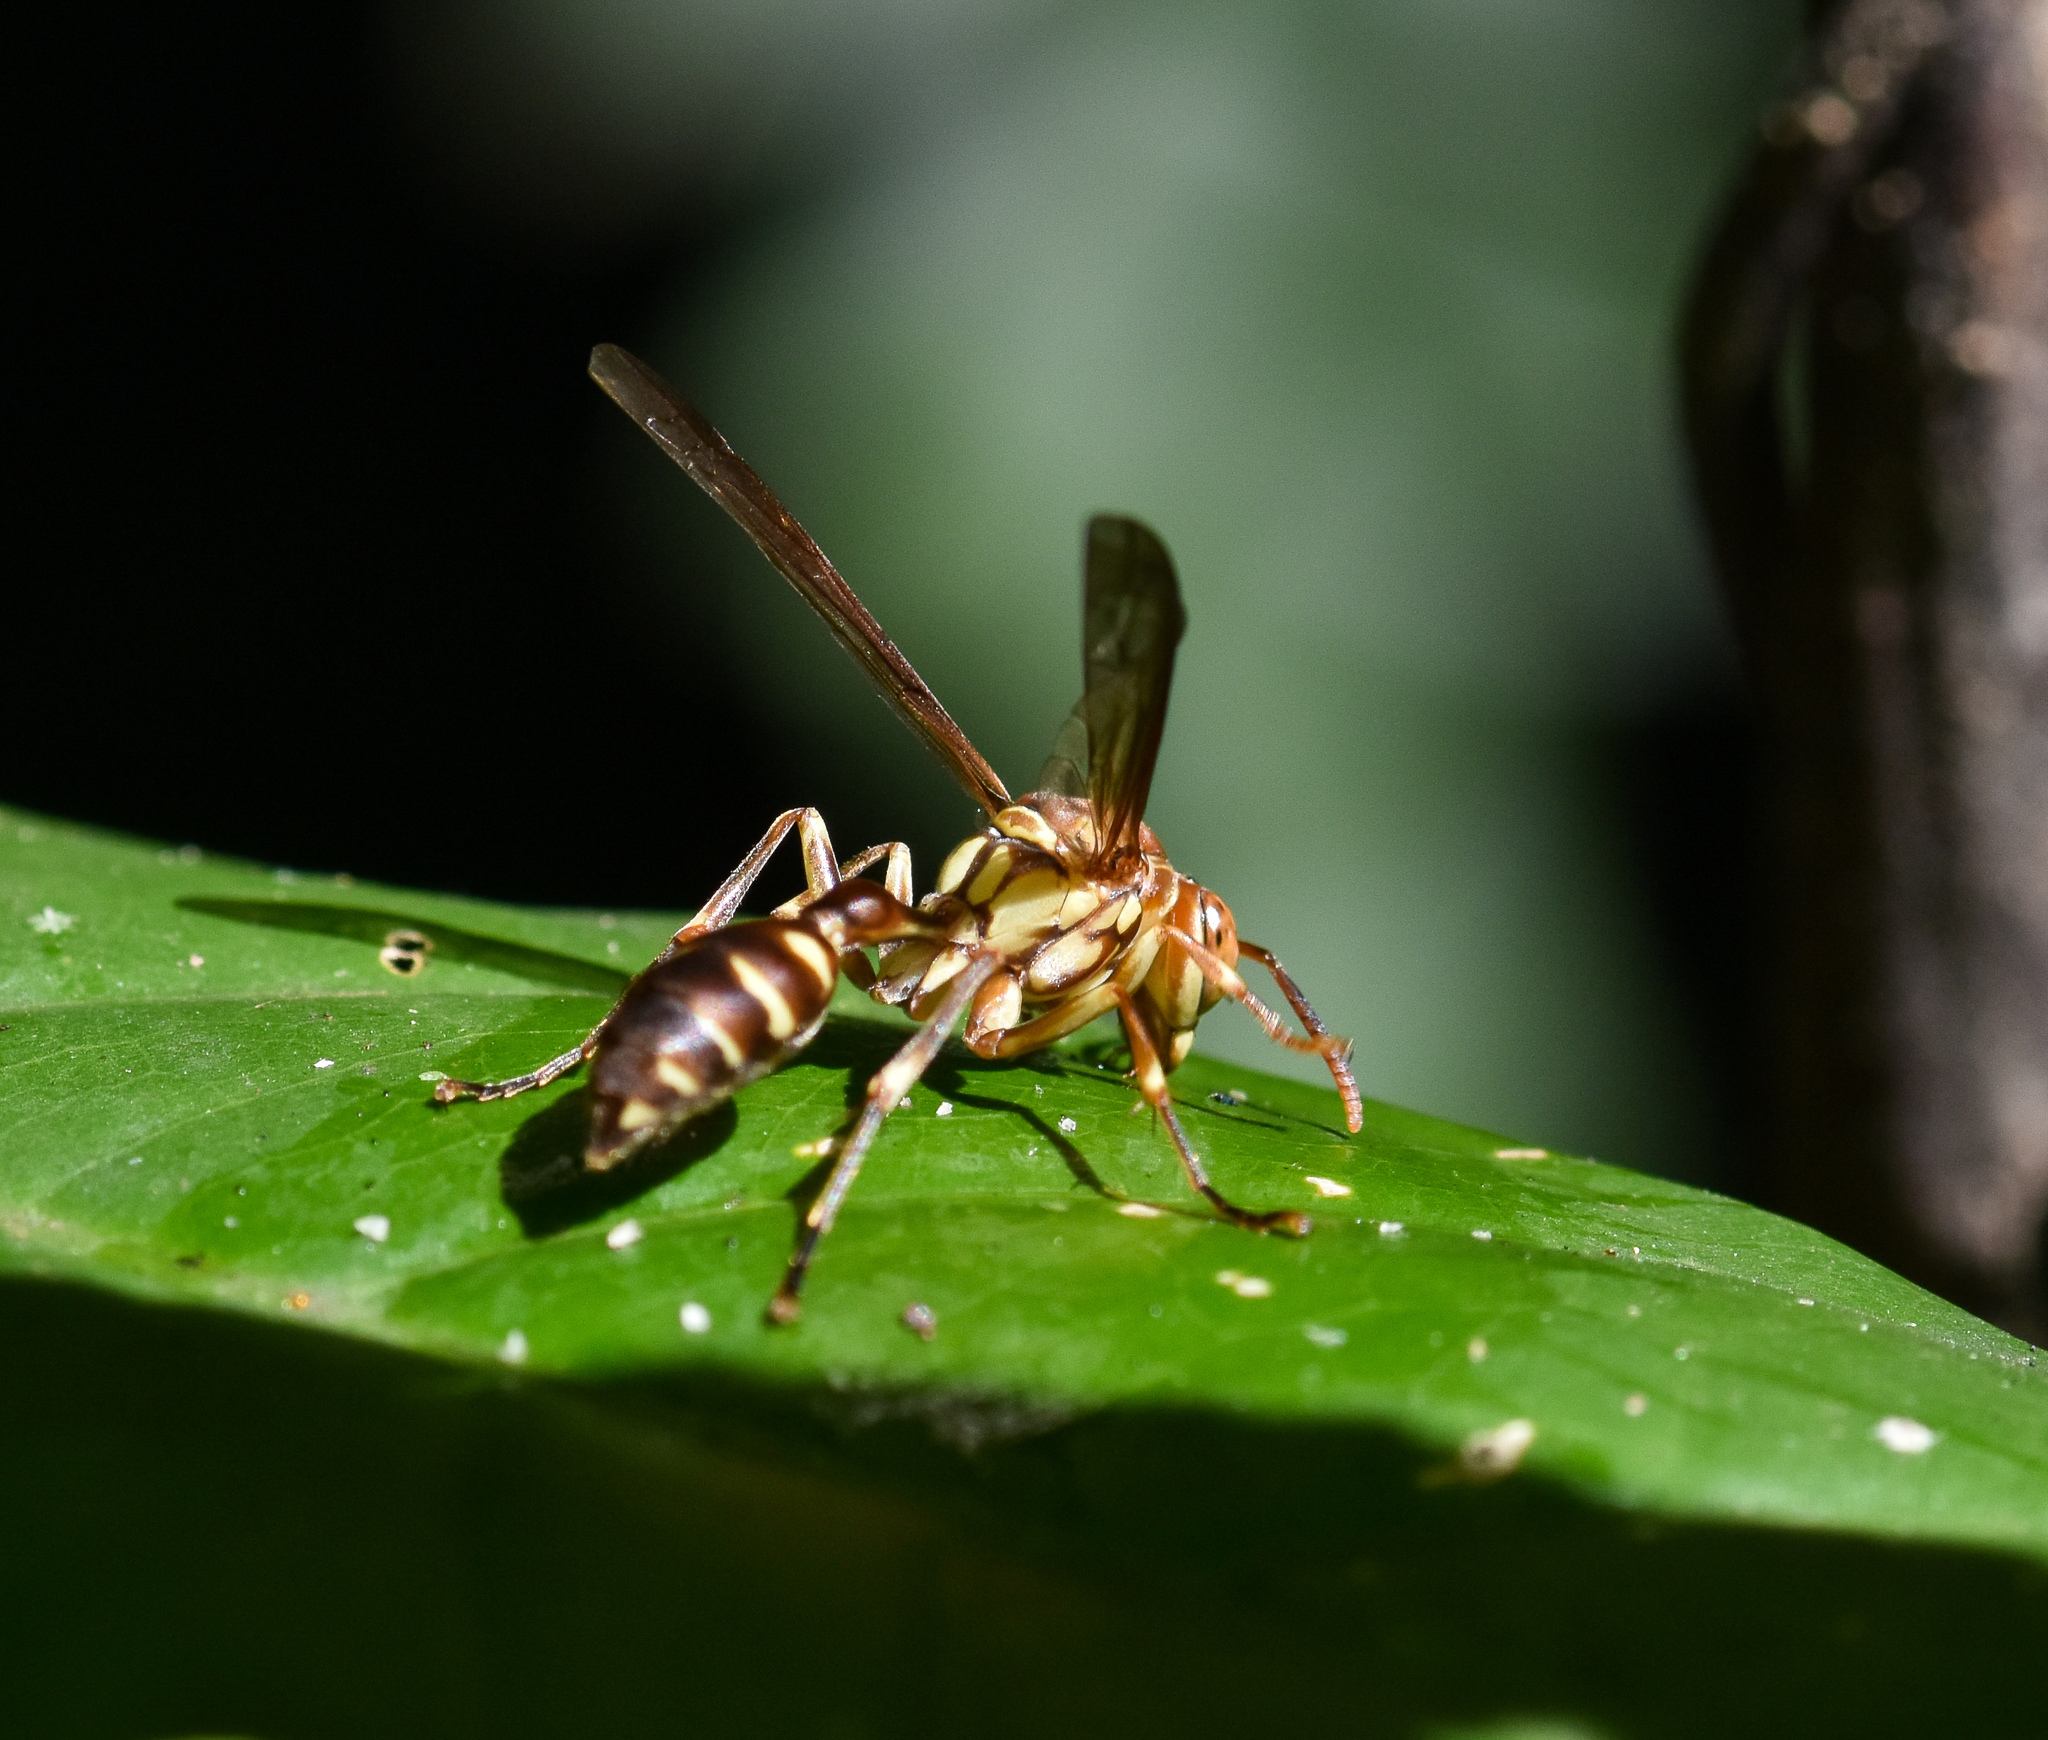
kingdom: Animalia
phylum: Arthropoda
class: Insecta
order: Hymenoptera
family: Vespidae
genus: Parapolybia
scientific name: Parapolybia nodosa
